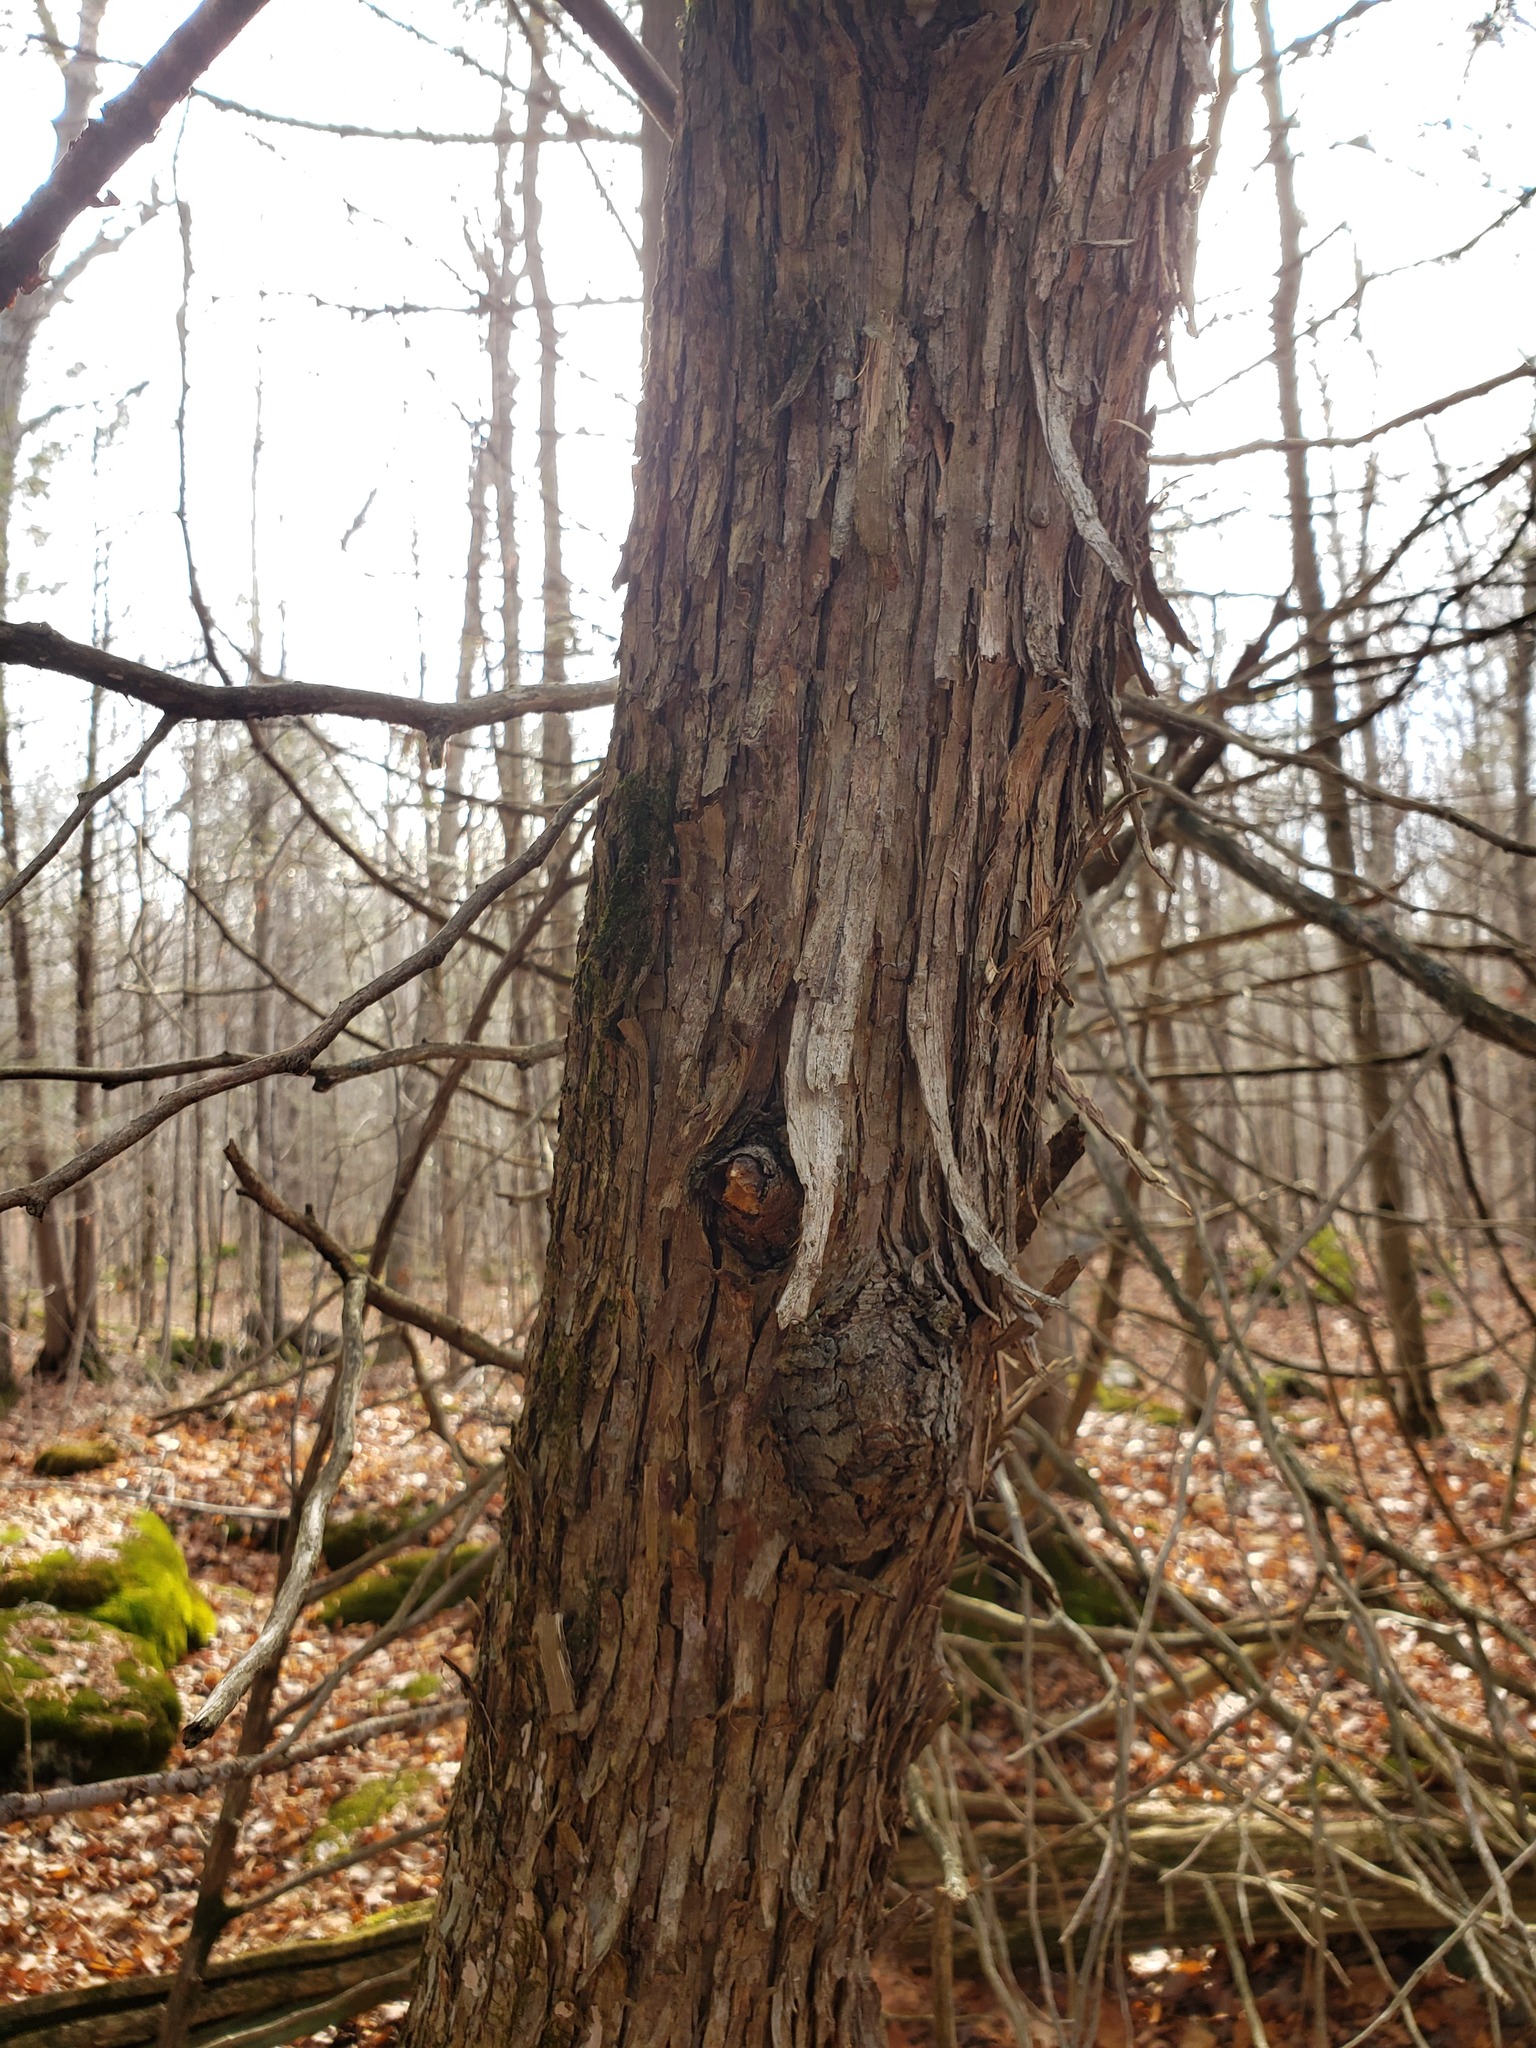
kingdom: Plantae
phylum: Tracheophyta
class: Magnoliopsida
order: Fagales
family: Betulaceae
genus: Ostrya
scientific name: Ostrya virginiana
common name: Ironwood
